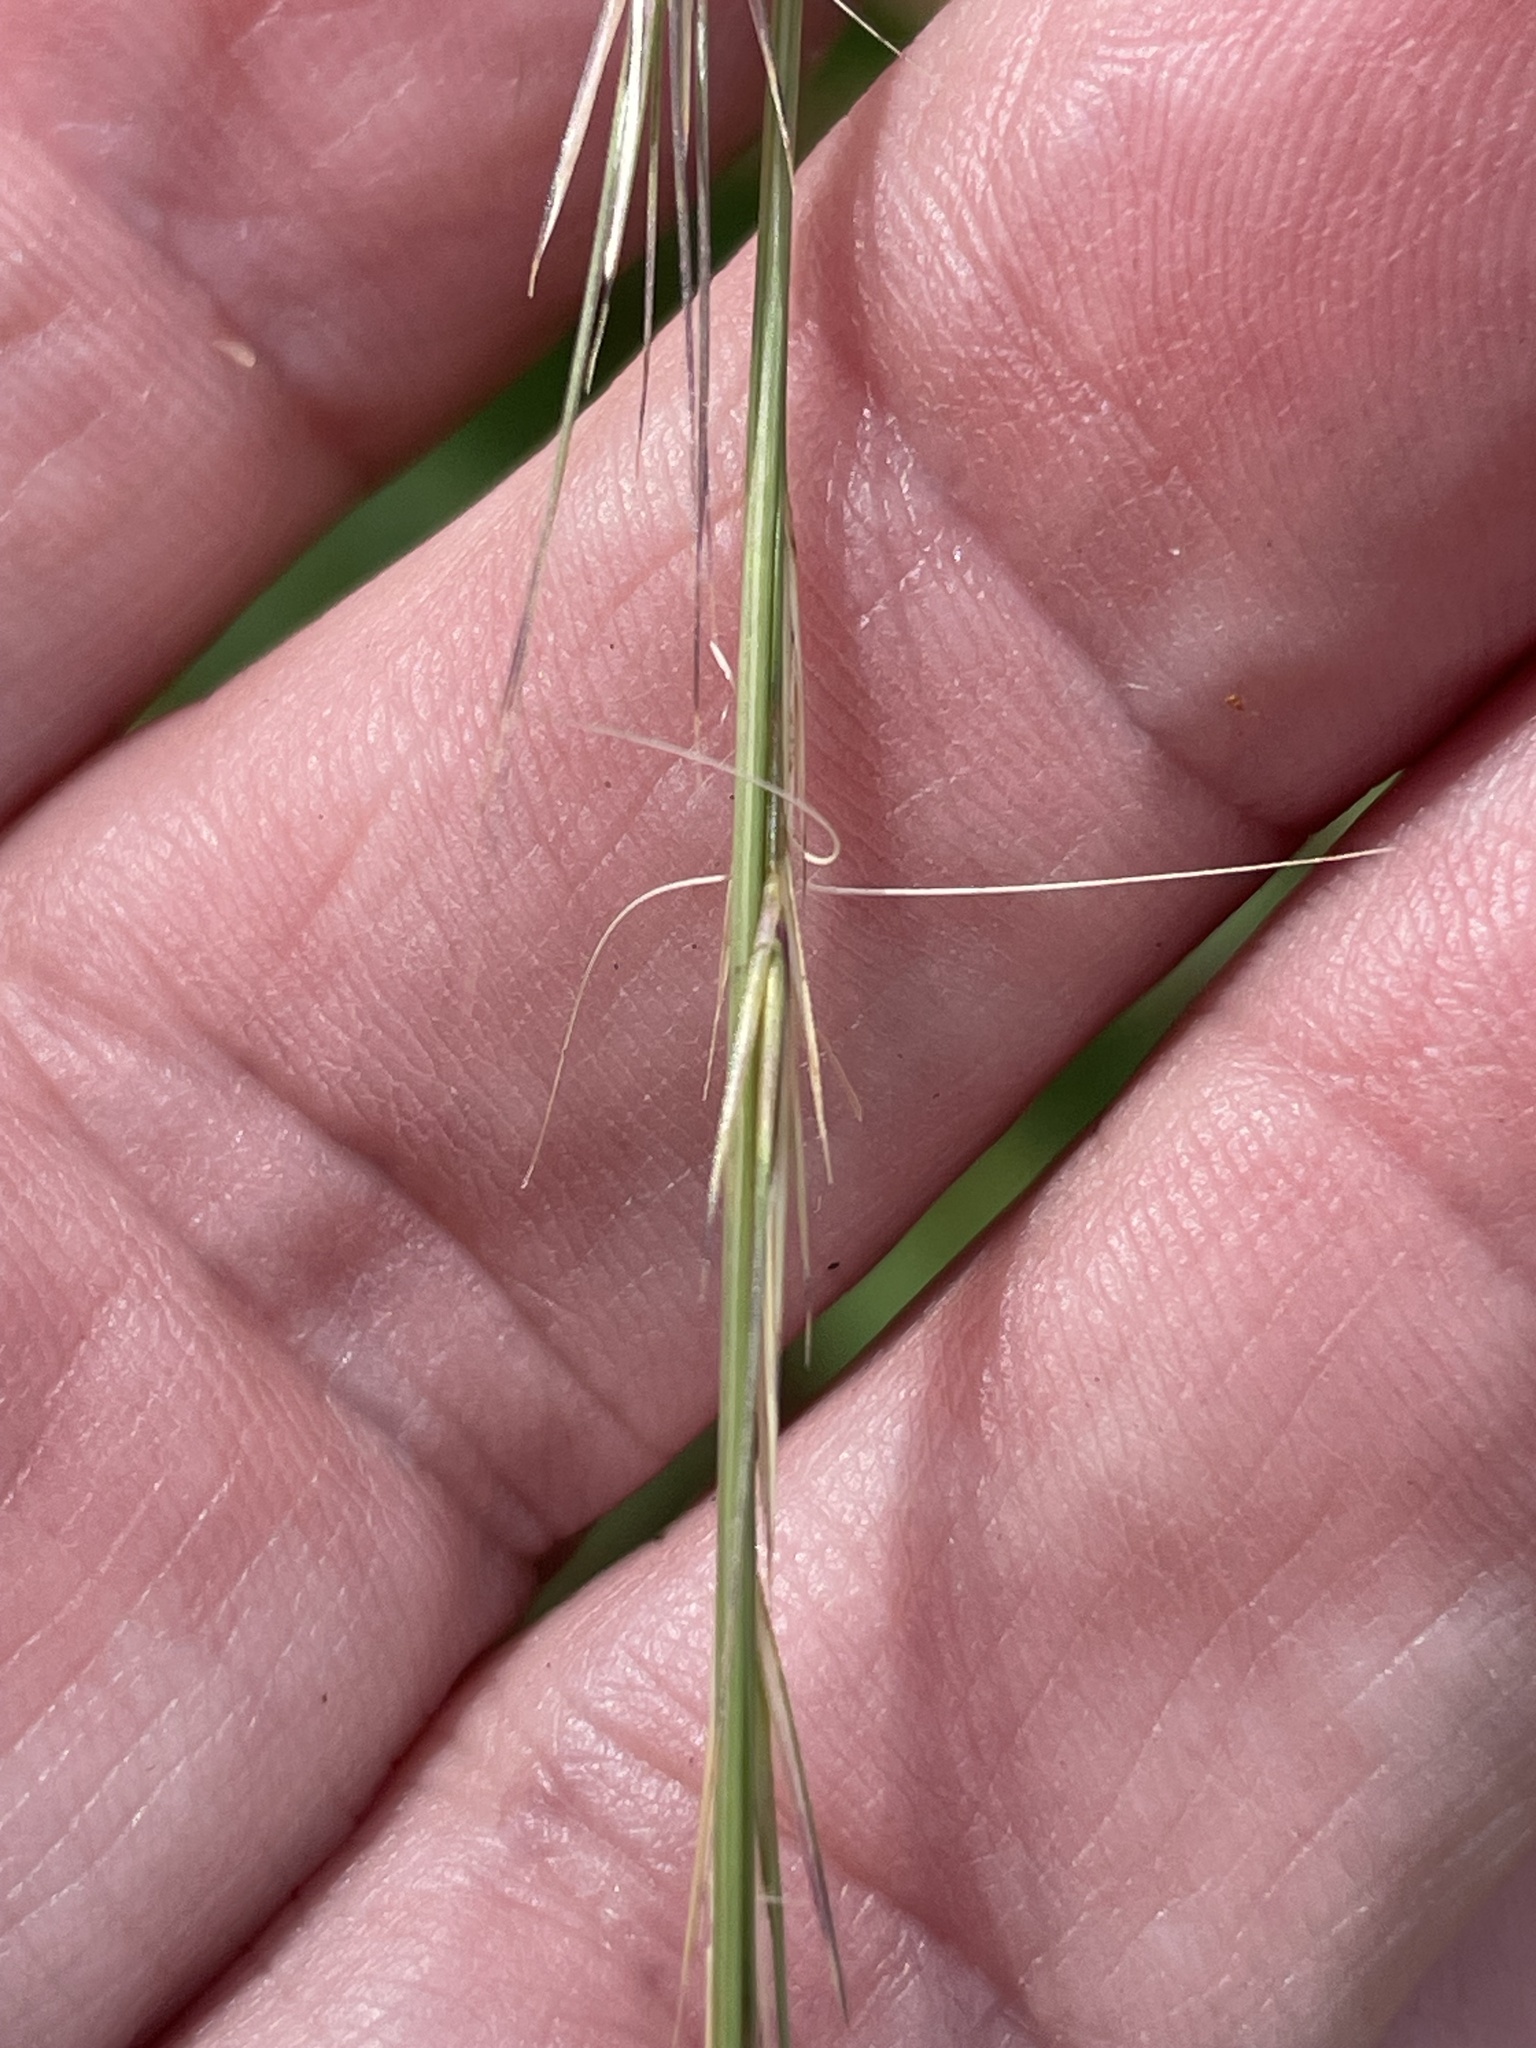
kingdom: Plantae
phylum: Tracheophyta
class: Liliopsida
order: Poales
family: Poaceae
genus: Aristida
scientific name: Aristida stricta
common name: Pineland three-awn
